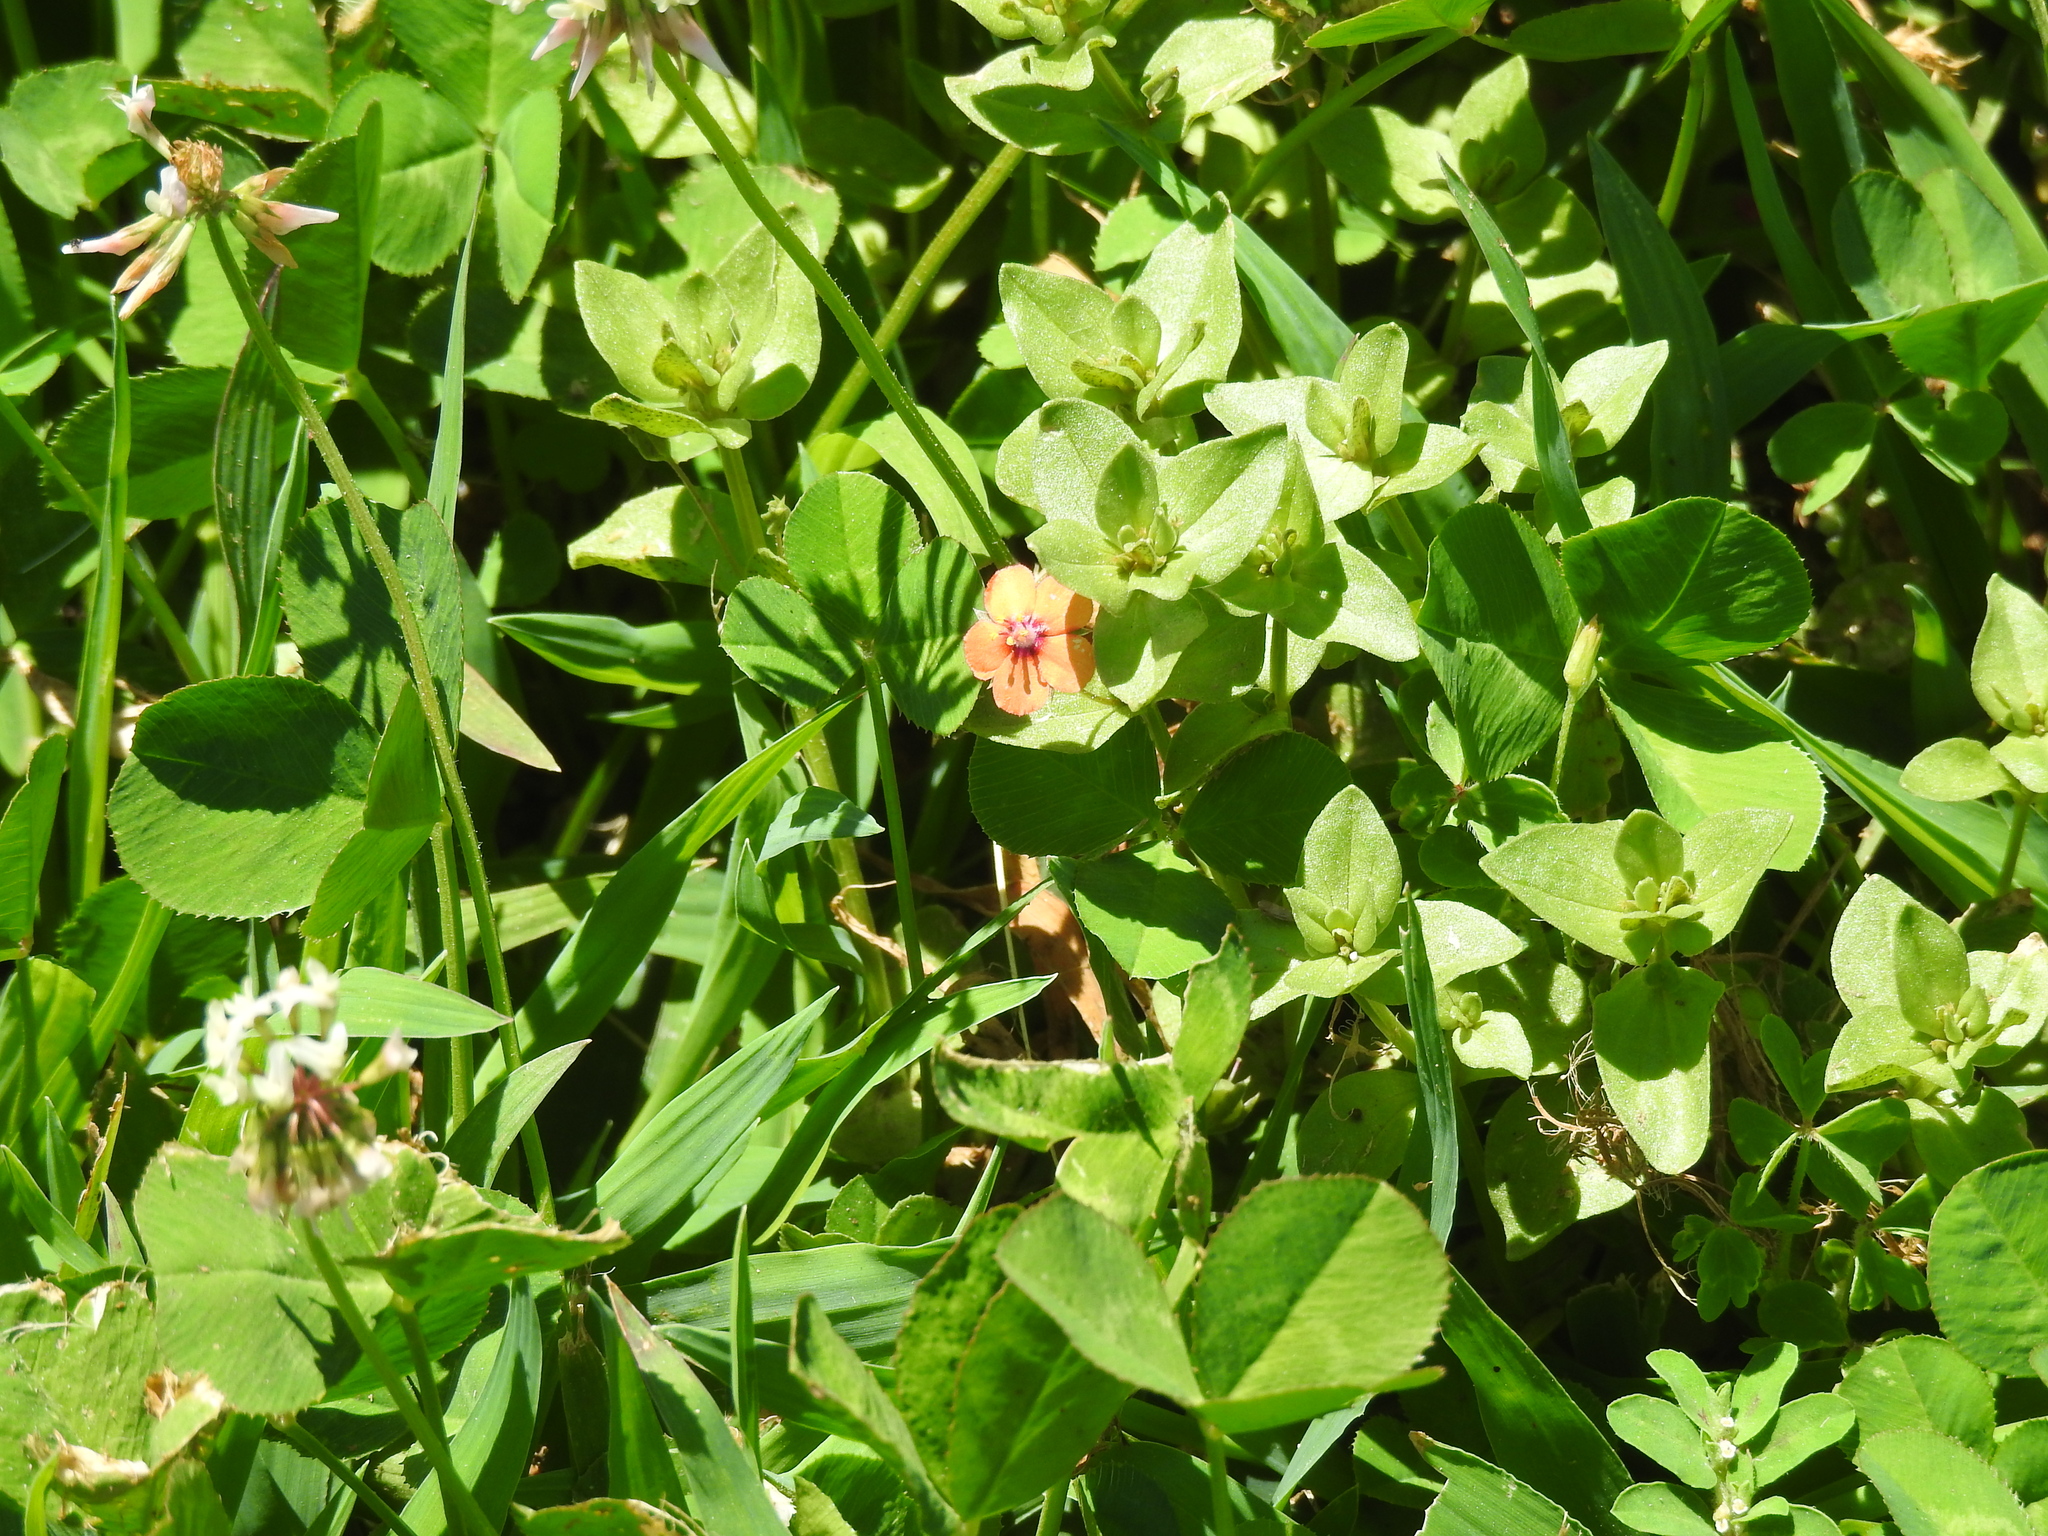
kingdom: Plantae
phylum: Tracheophyta
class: Magnoliopsida
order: Ericales
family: Primulaceae
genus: Lysimachia
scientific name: Lysimachia arvensis
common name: Scarlet pimpernel
